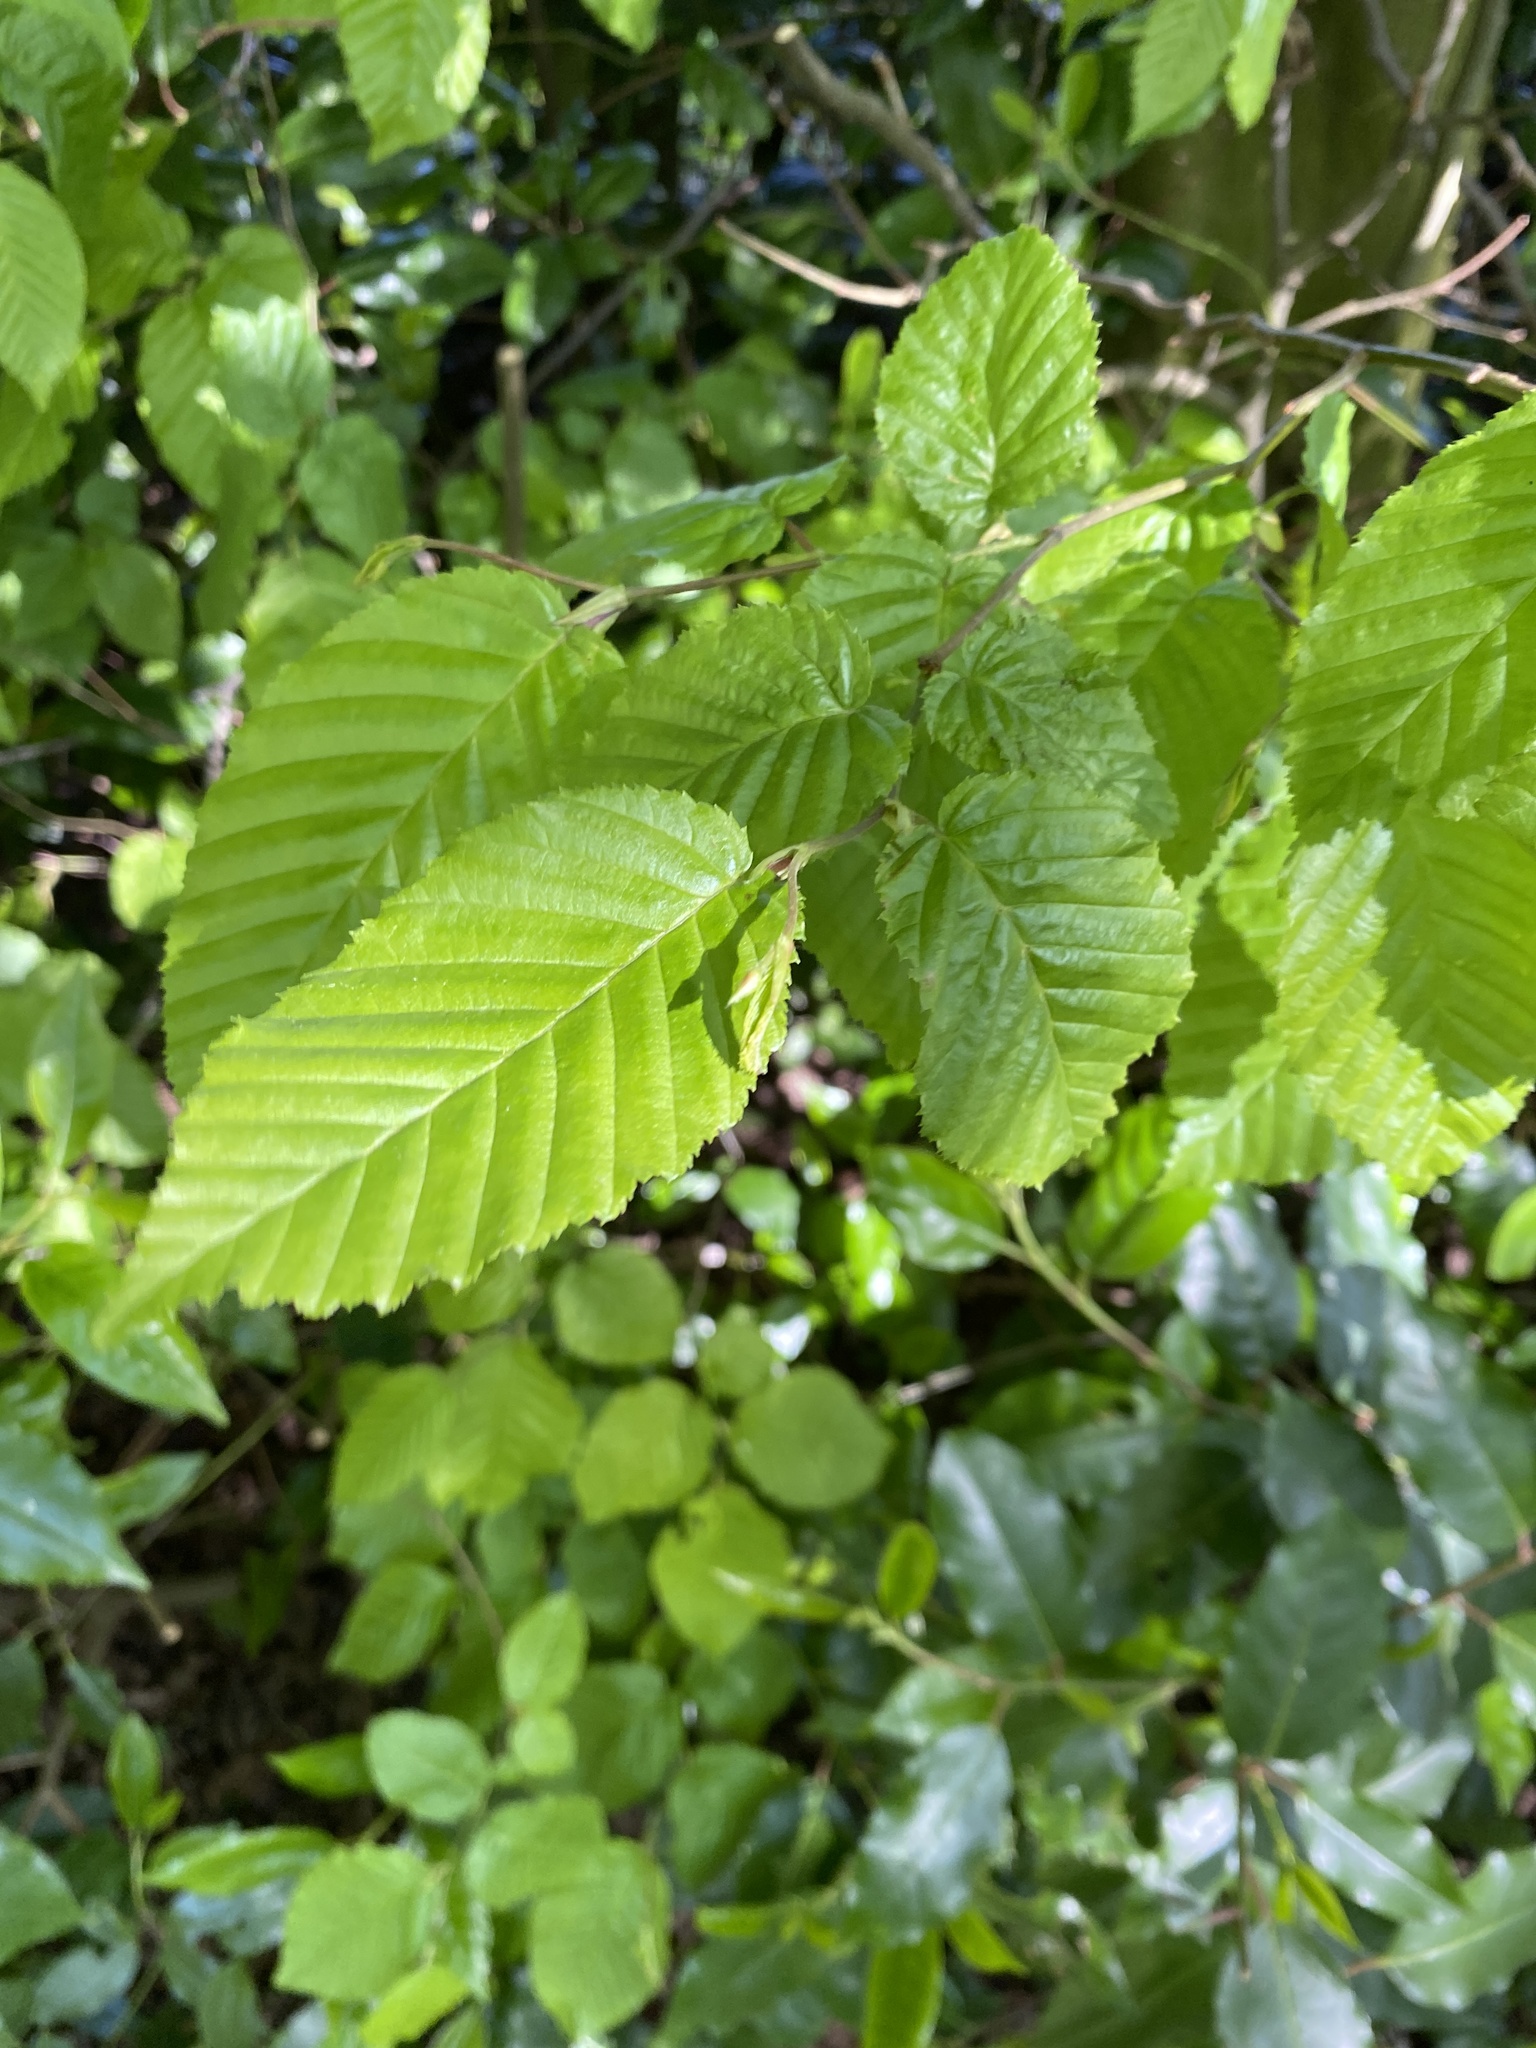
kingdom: Plantae
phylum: Tracheophyta
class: Magnoliopsida
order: Fagales
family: Betulaceae
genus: Carpinus
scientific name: Carpinus betulus
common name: Hornbeam
